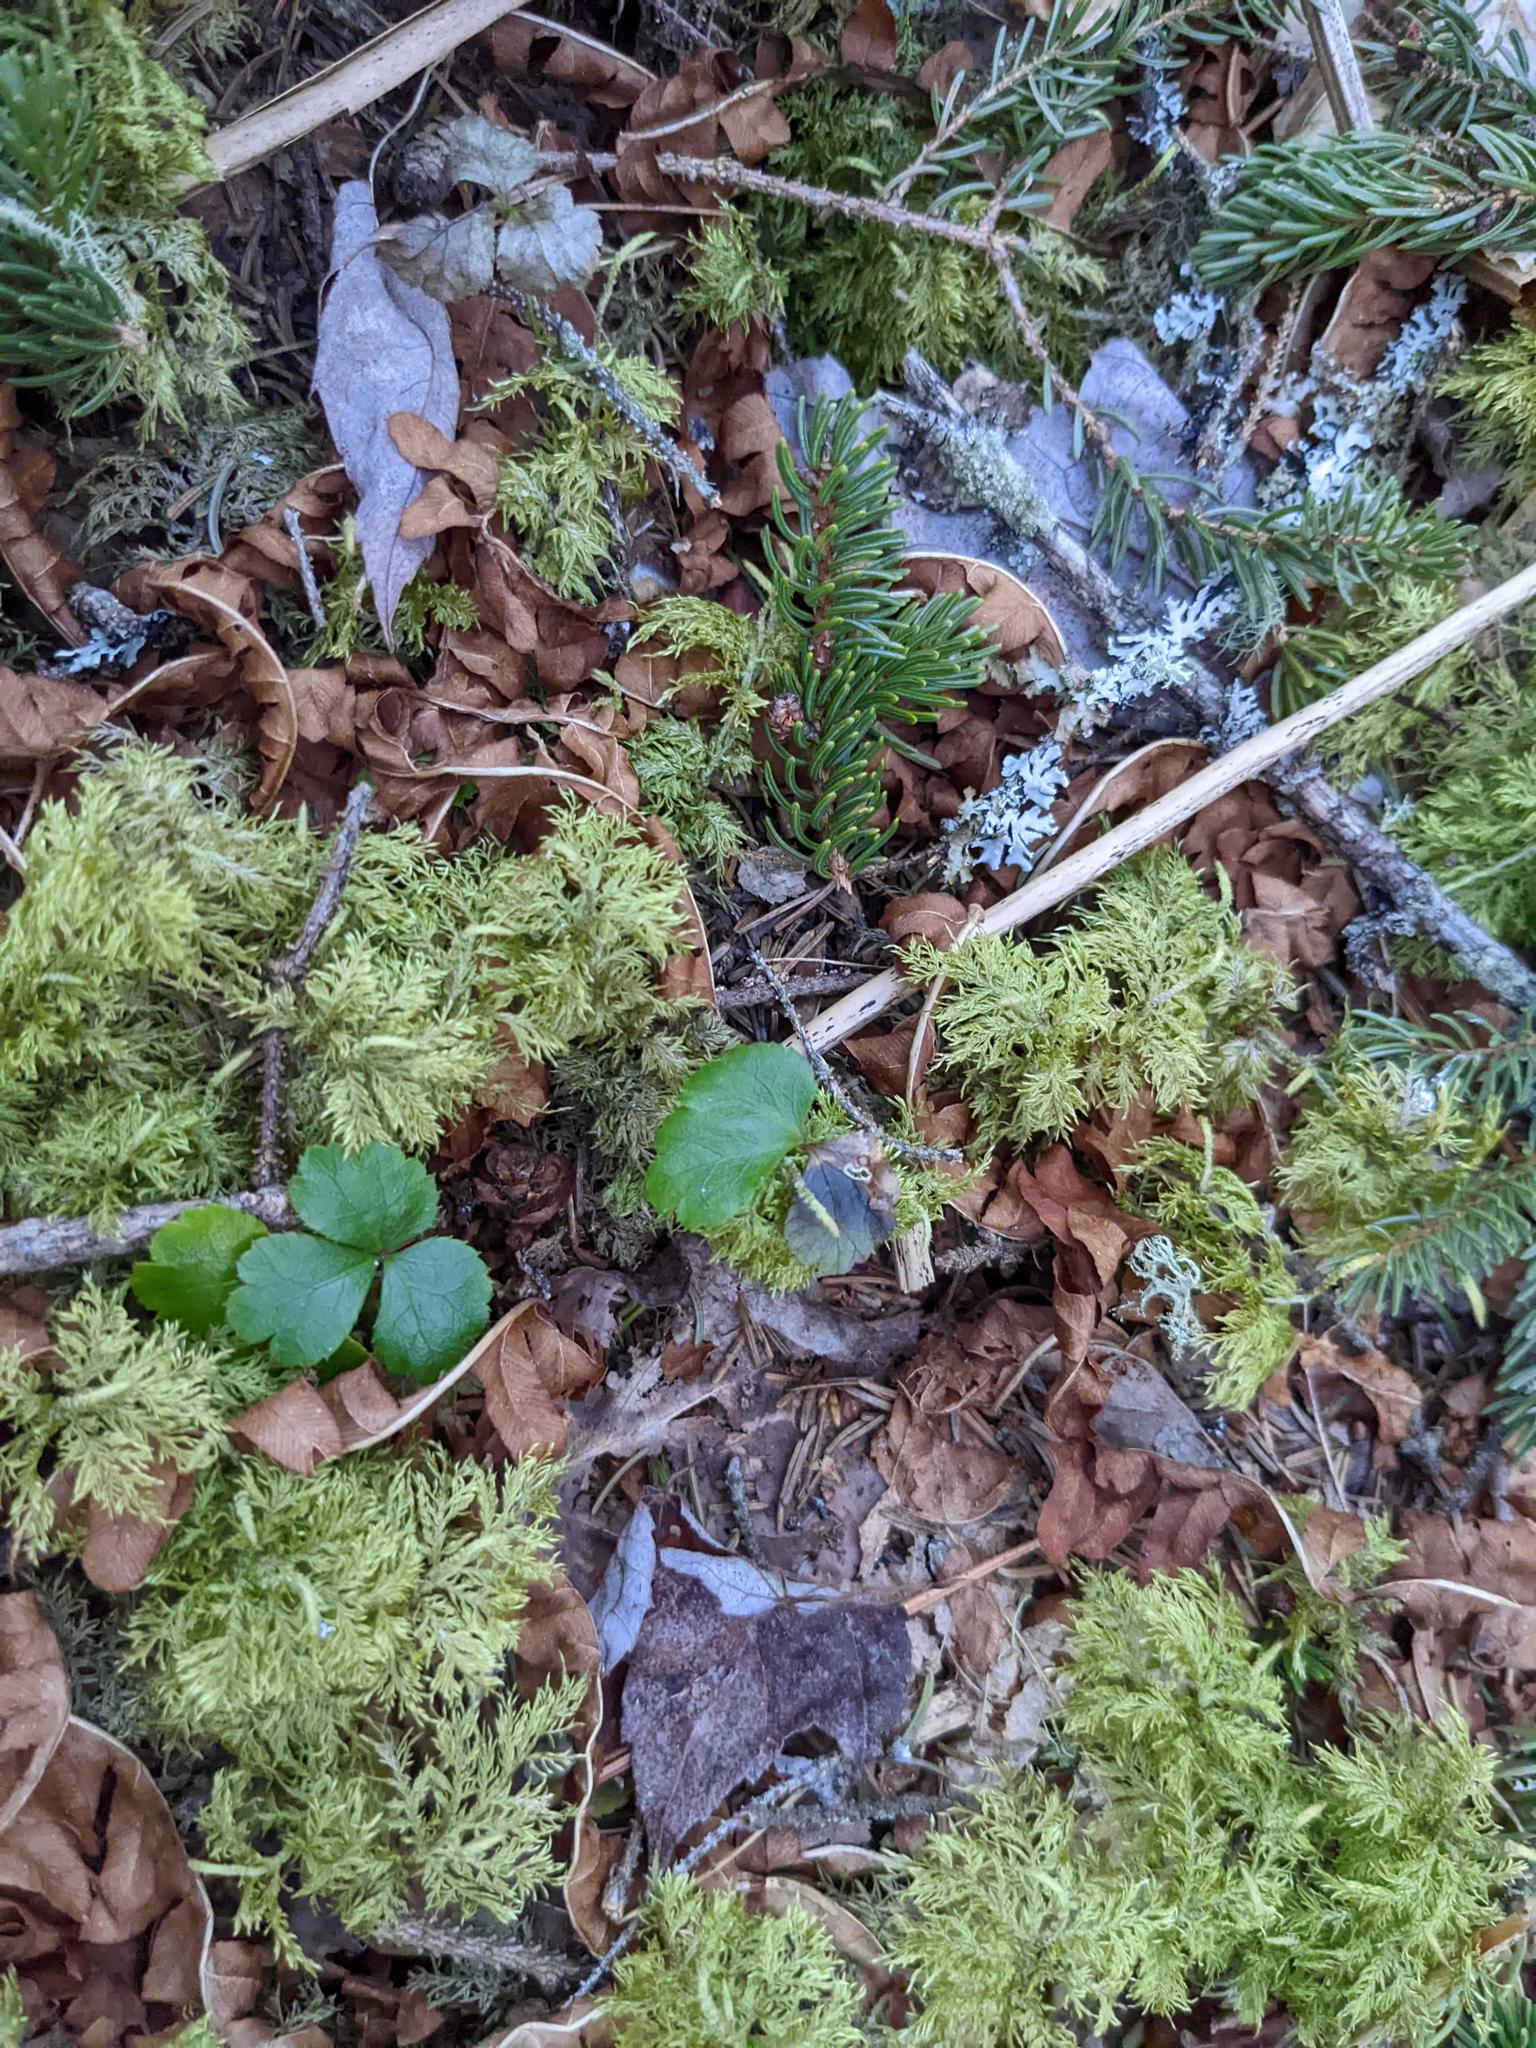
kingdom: Plantae
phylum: Tracheophyta
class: Magnoliopsida
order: Ranunculales
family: Ranunculaceae
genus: Coptis
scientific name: Coptis trifolia
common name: Canker-root
